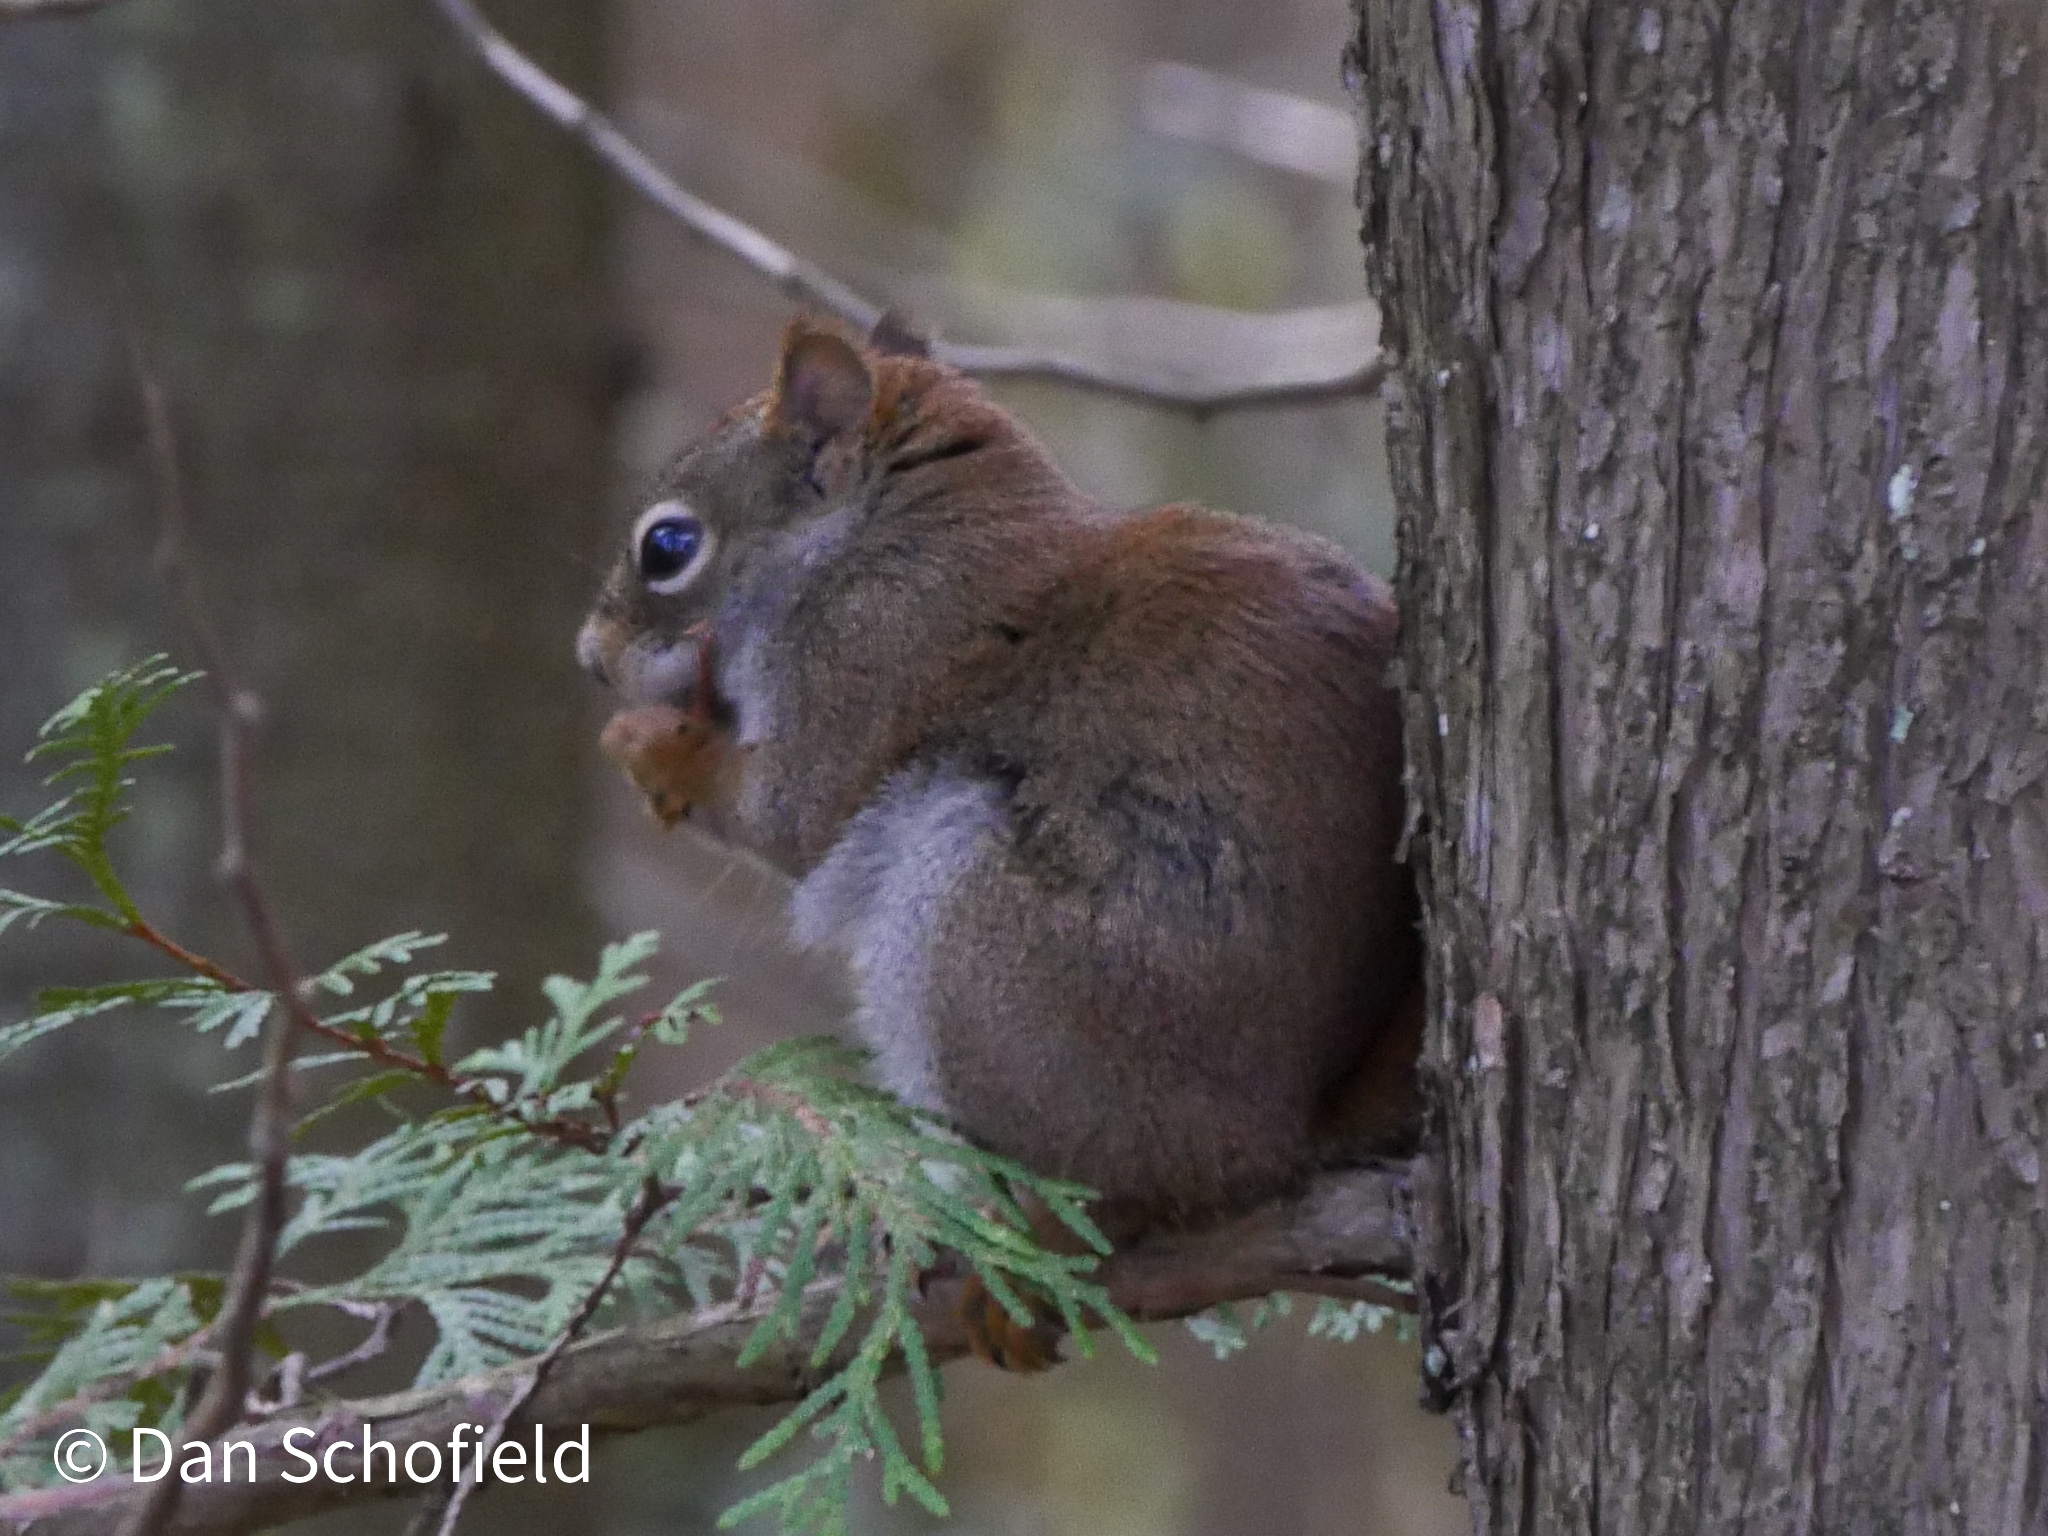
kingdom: Animalia
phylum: Chordata
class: Mammalia
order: Rodentia
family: Sciuridae
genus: Tamiasciurus
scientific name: Tamiasciurus hudsonicus
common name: Red squirrel
